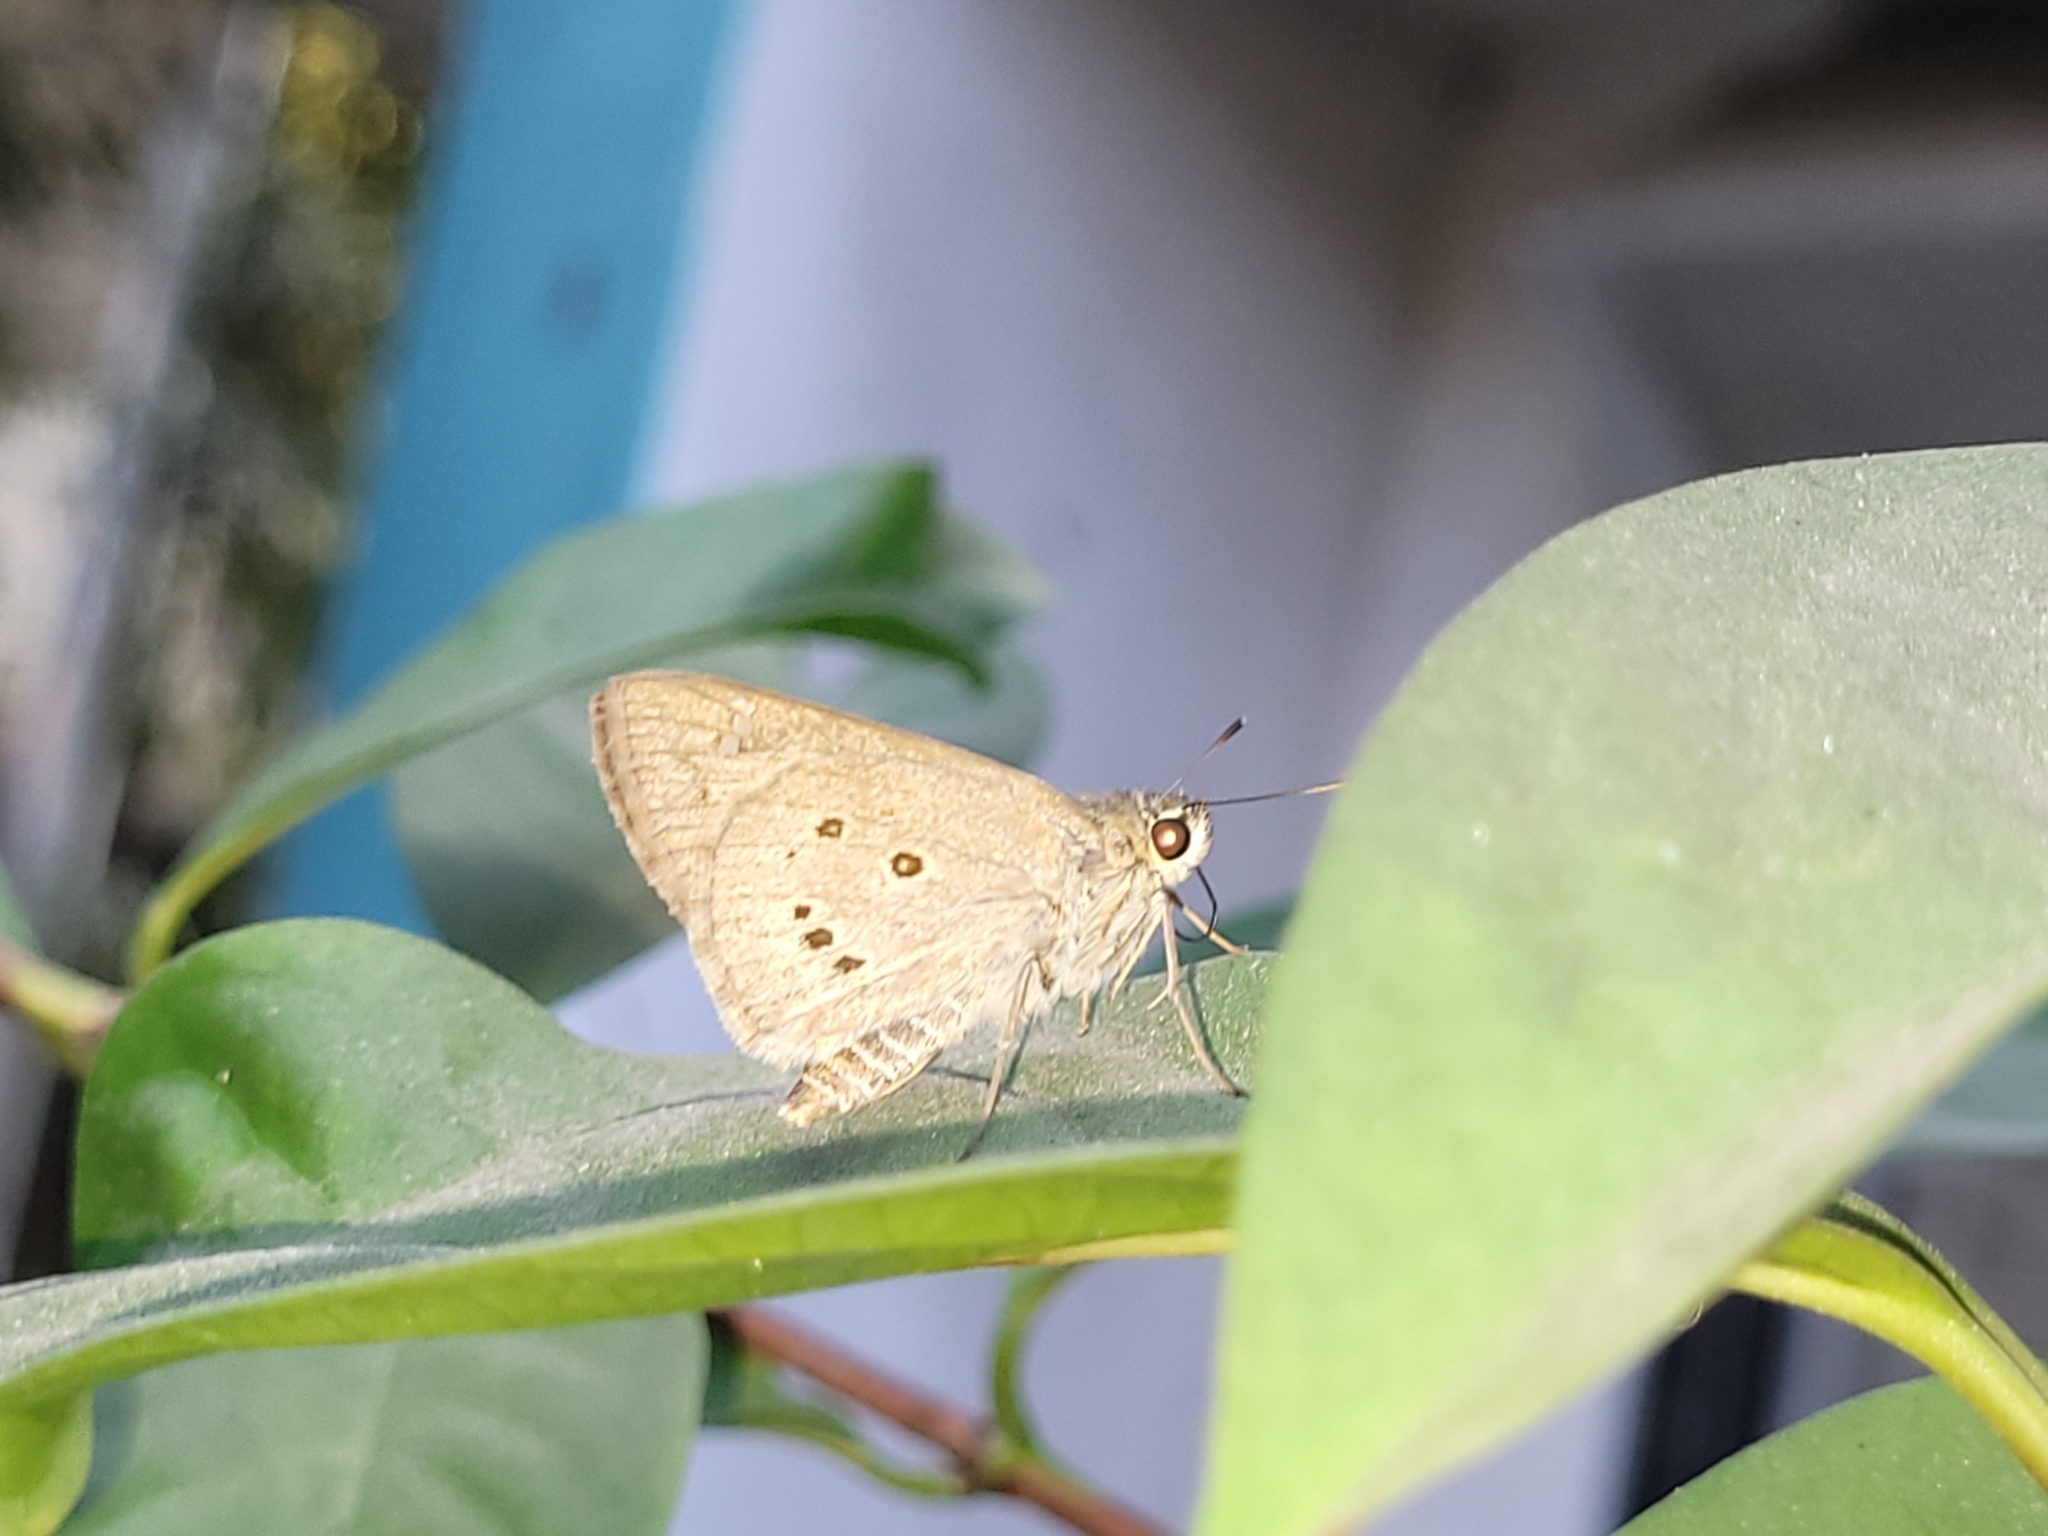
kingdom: Animalia
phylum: Arthropoda
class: Insecta
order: Lepidoptera
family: Hesperiidae
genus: Suastus
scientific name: Suastus gremius
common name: Indian palm bob
